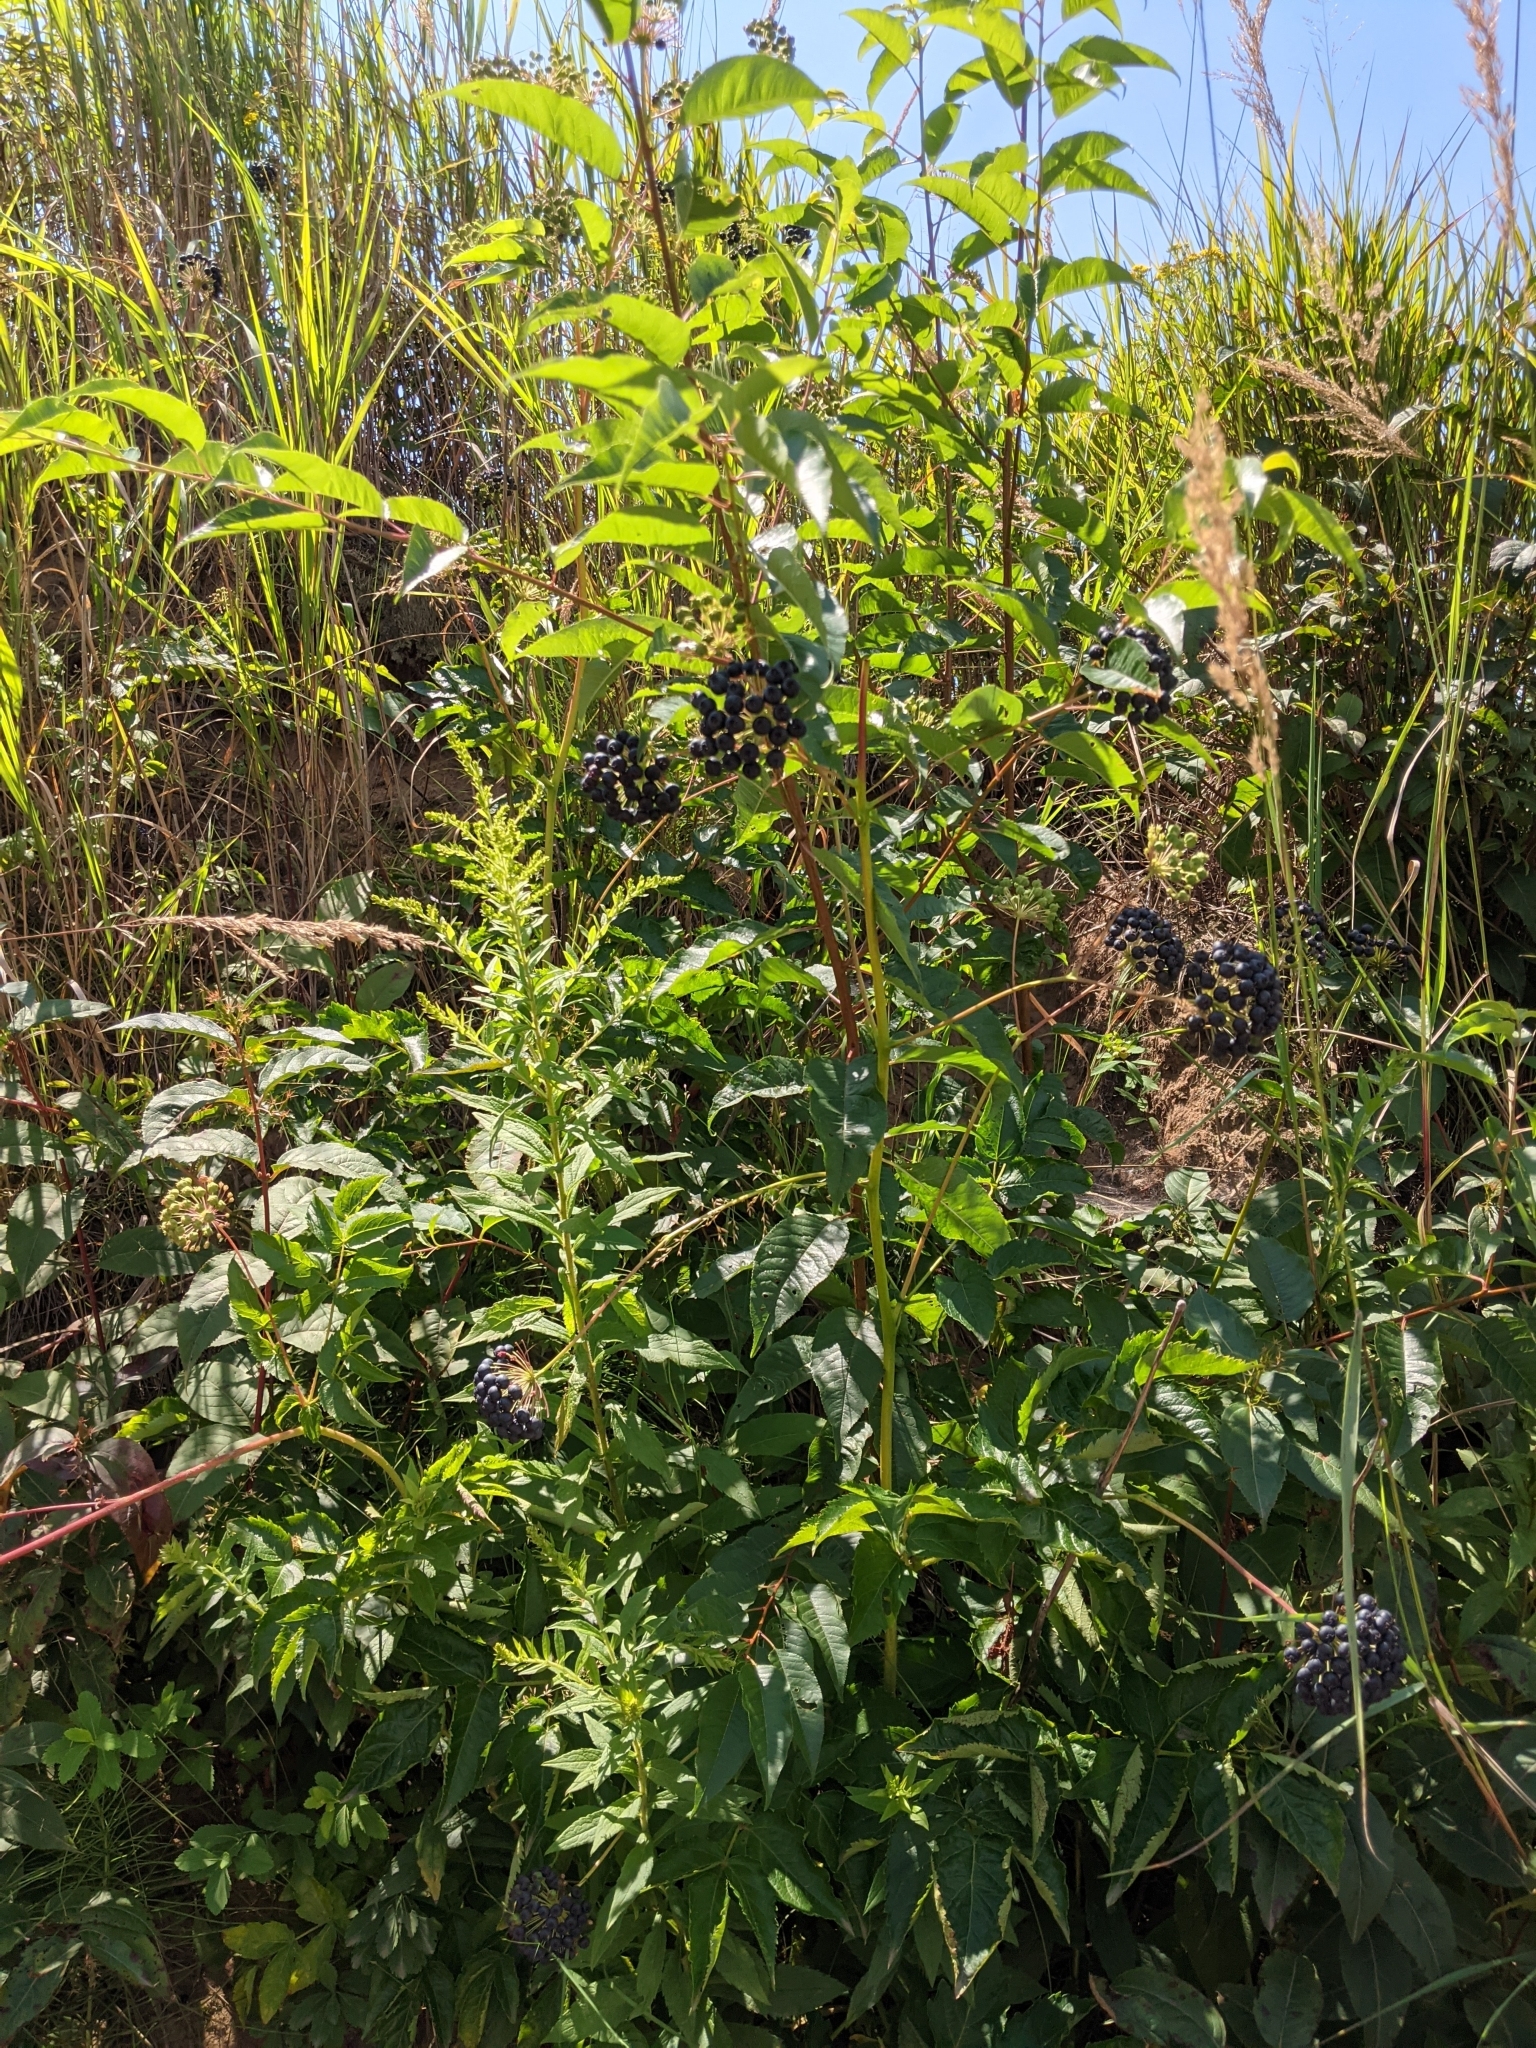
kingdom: Plantae
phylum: Tracheophyta
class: Magnoliopsida
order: Apiales
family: Araliaceae
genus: Aralia
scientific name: Aralia hispida
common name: Bristly sarsaparilla
